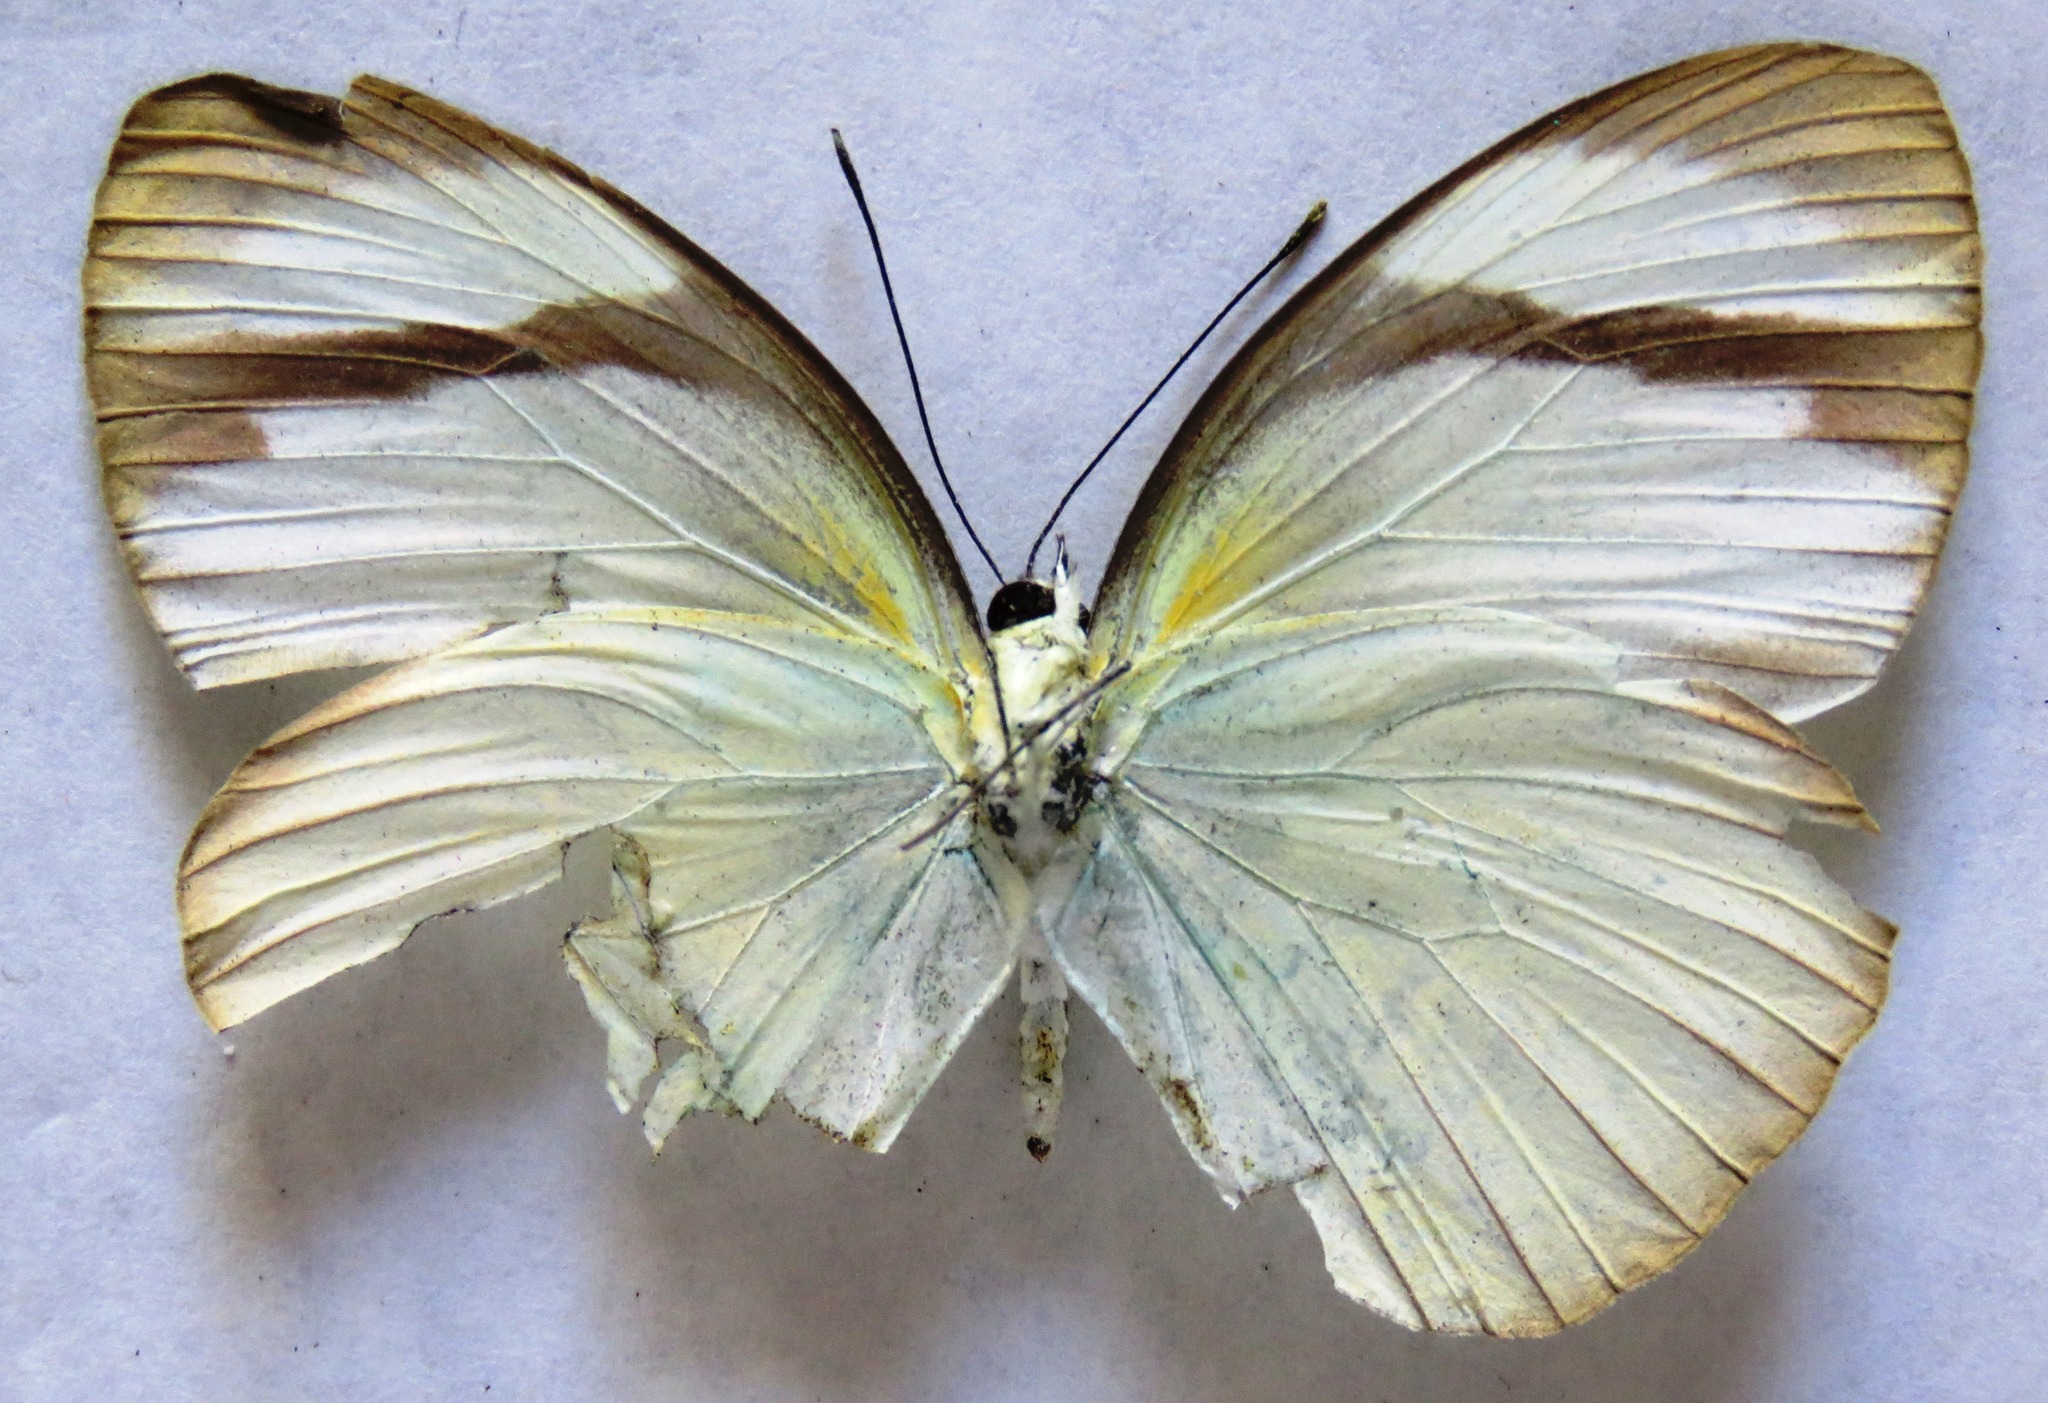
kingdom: Animalia
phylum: Arthropoda
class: Insecta
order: Lepidoptera
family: Pieridae
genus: Itaballia
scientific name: Itaballia demophile
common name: Cross-barred white
